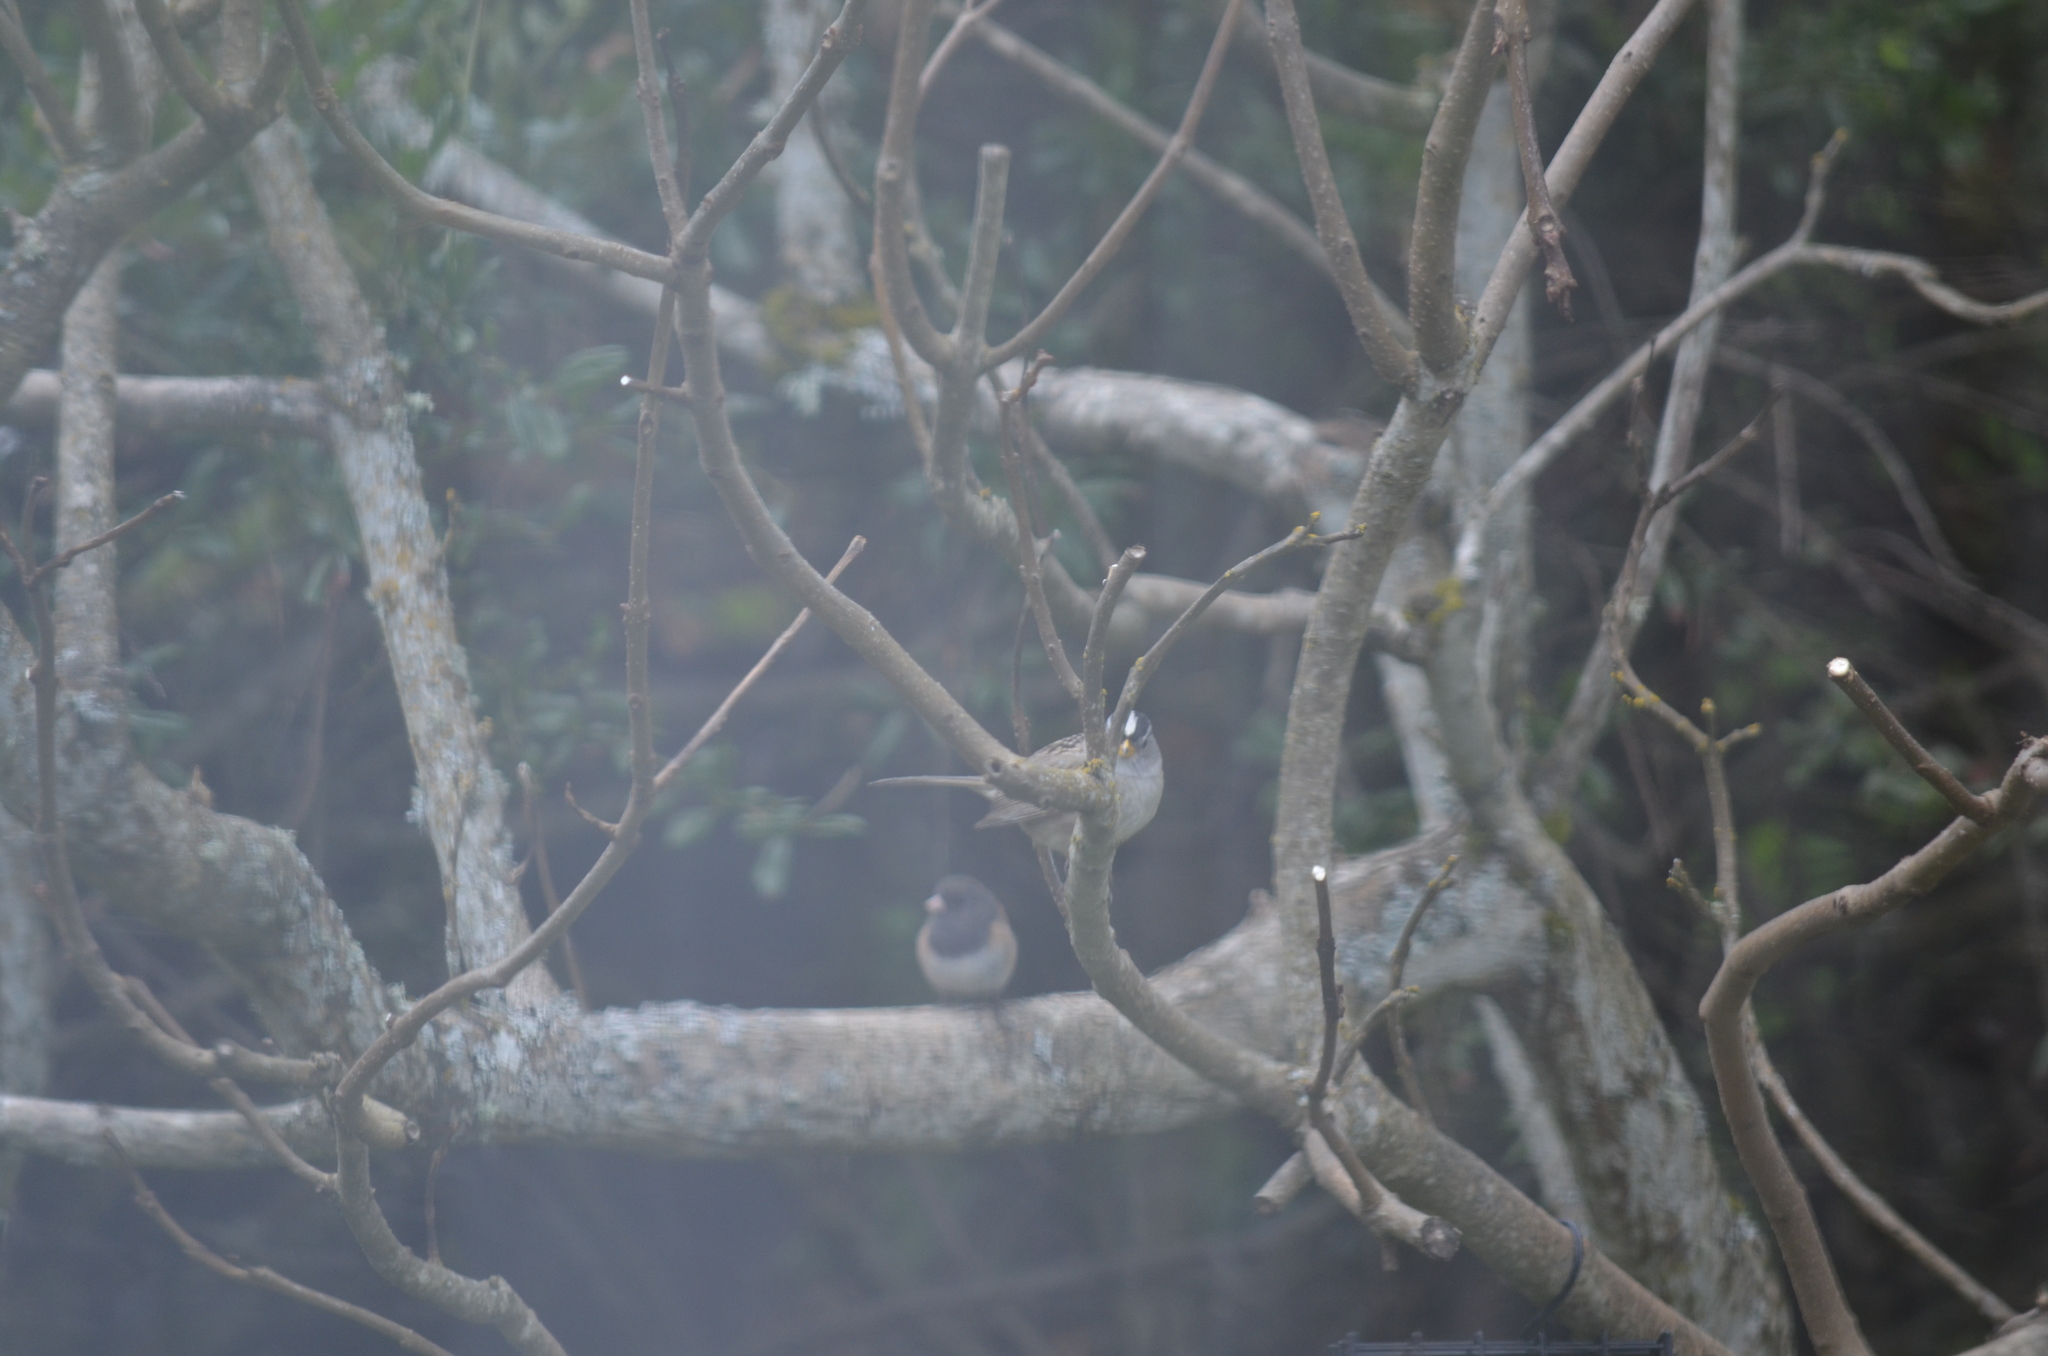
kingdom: Animalia
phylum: Chordata
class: Aves
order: Passeriformes
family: Passerellidae
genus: Junco
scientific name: Junco hyemalis
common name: Dark-eyed junco
